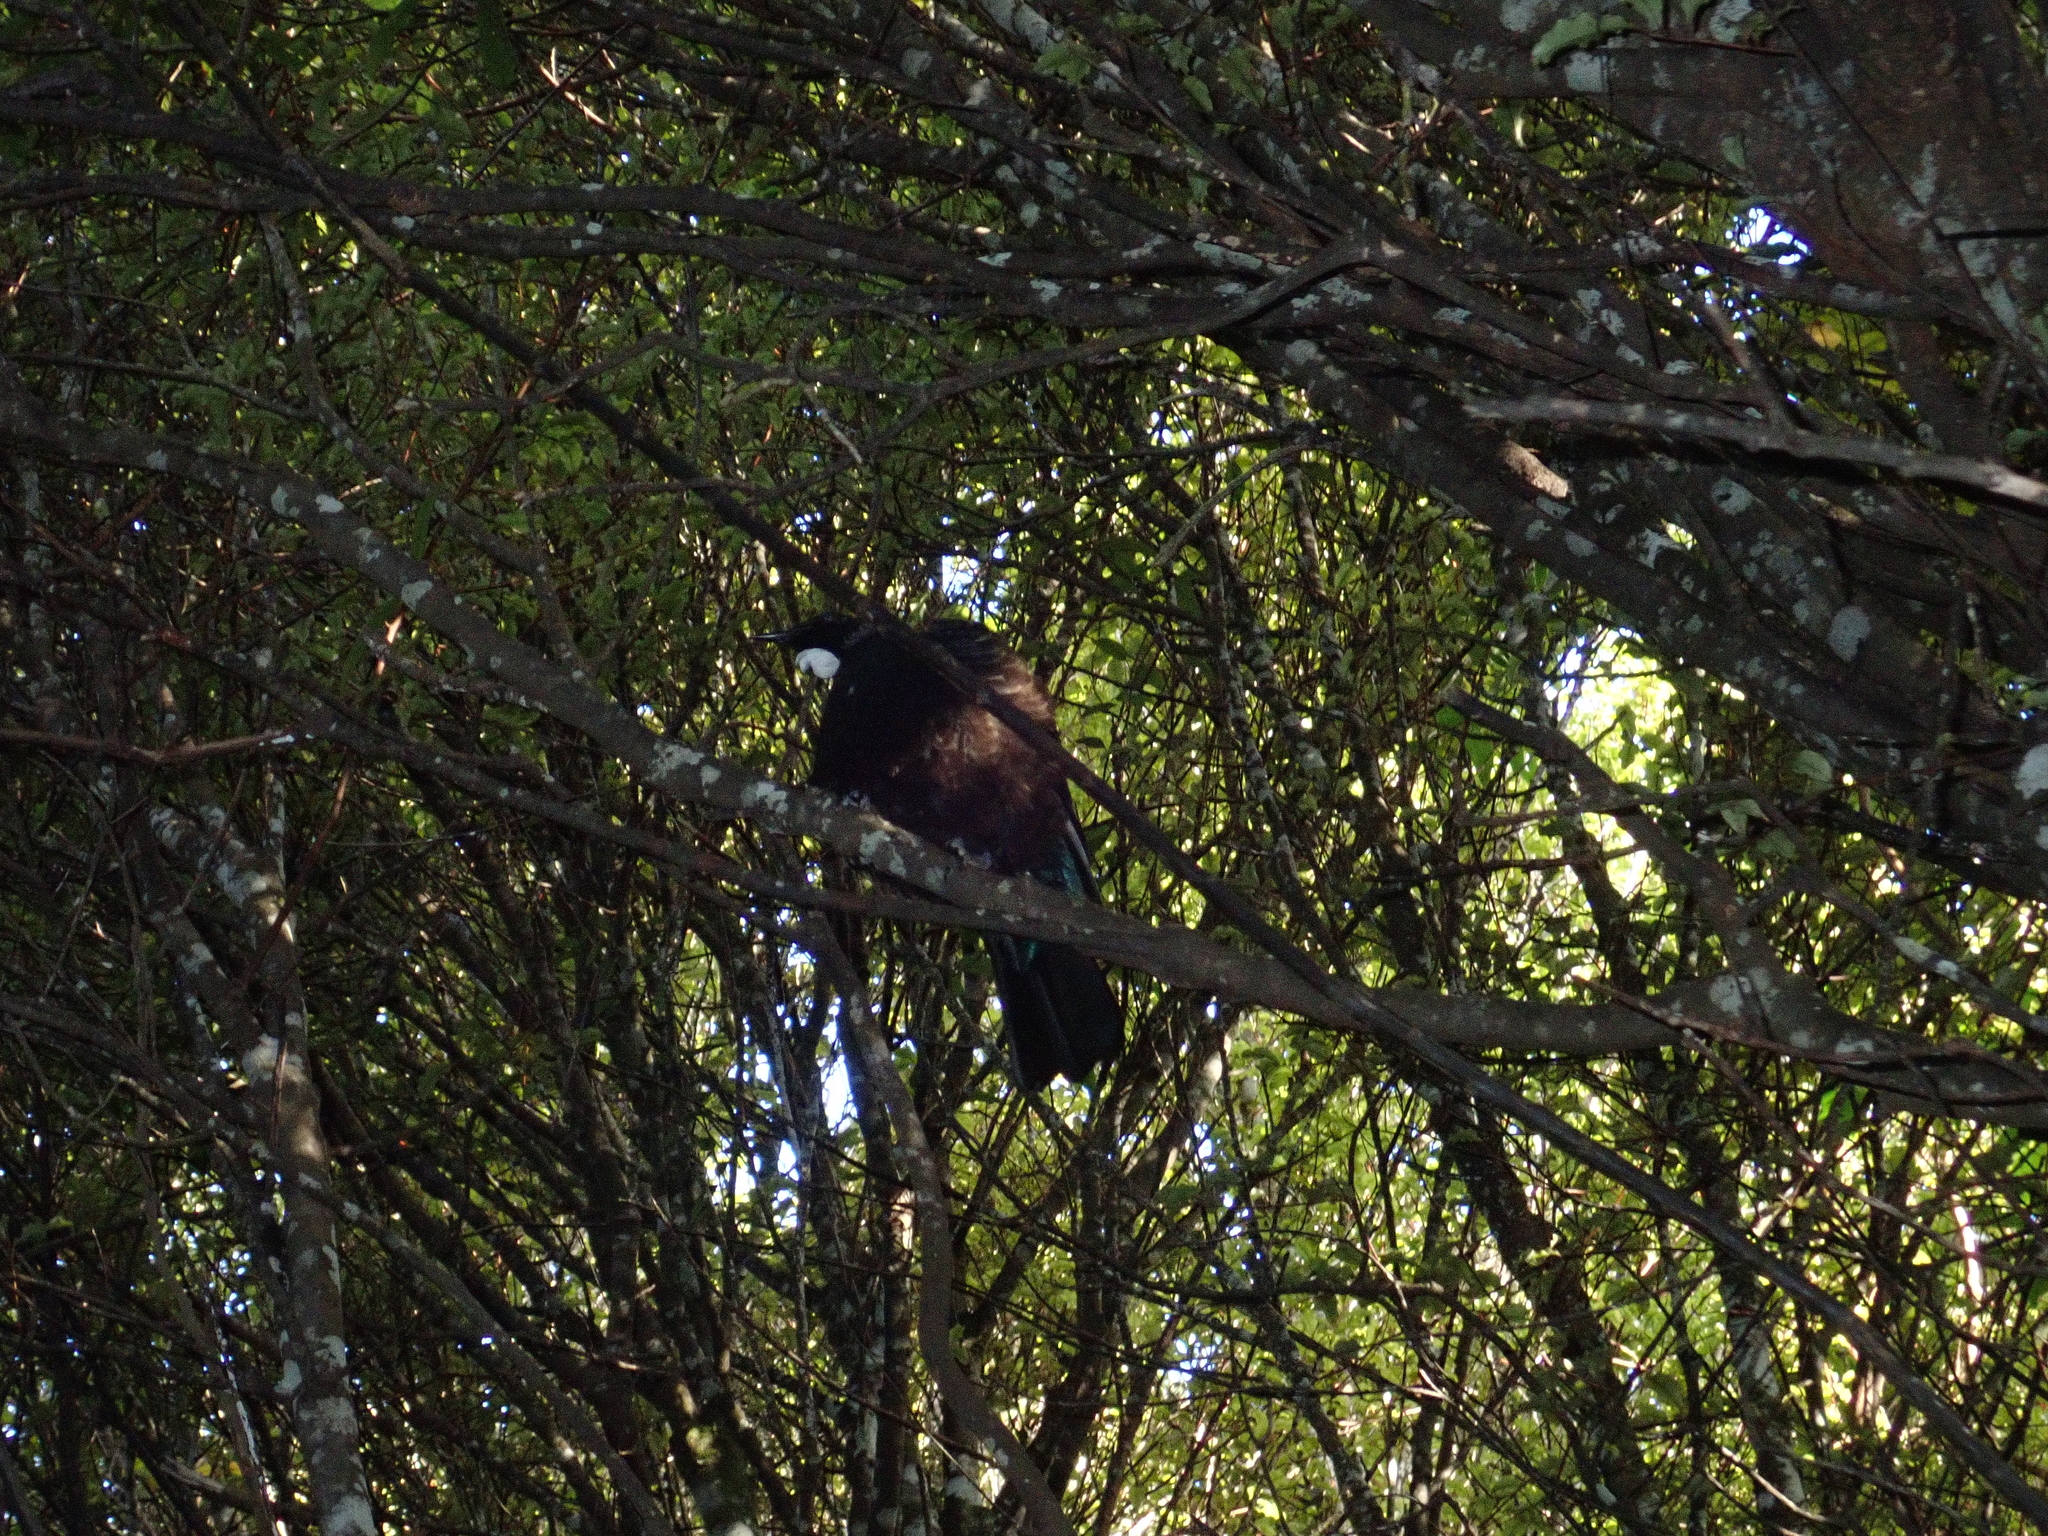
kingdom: Animalia
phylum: Chordata
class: Aves
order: Passeriformes
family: Meliphagidae
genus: Prosthemadera
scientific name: Prosthemadera novaeseelandiae
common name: Tui
